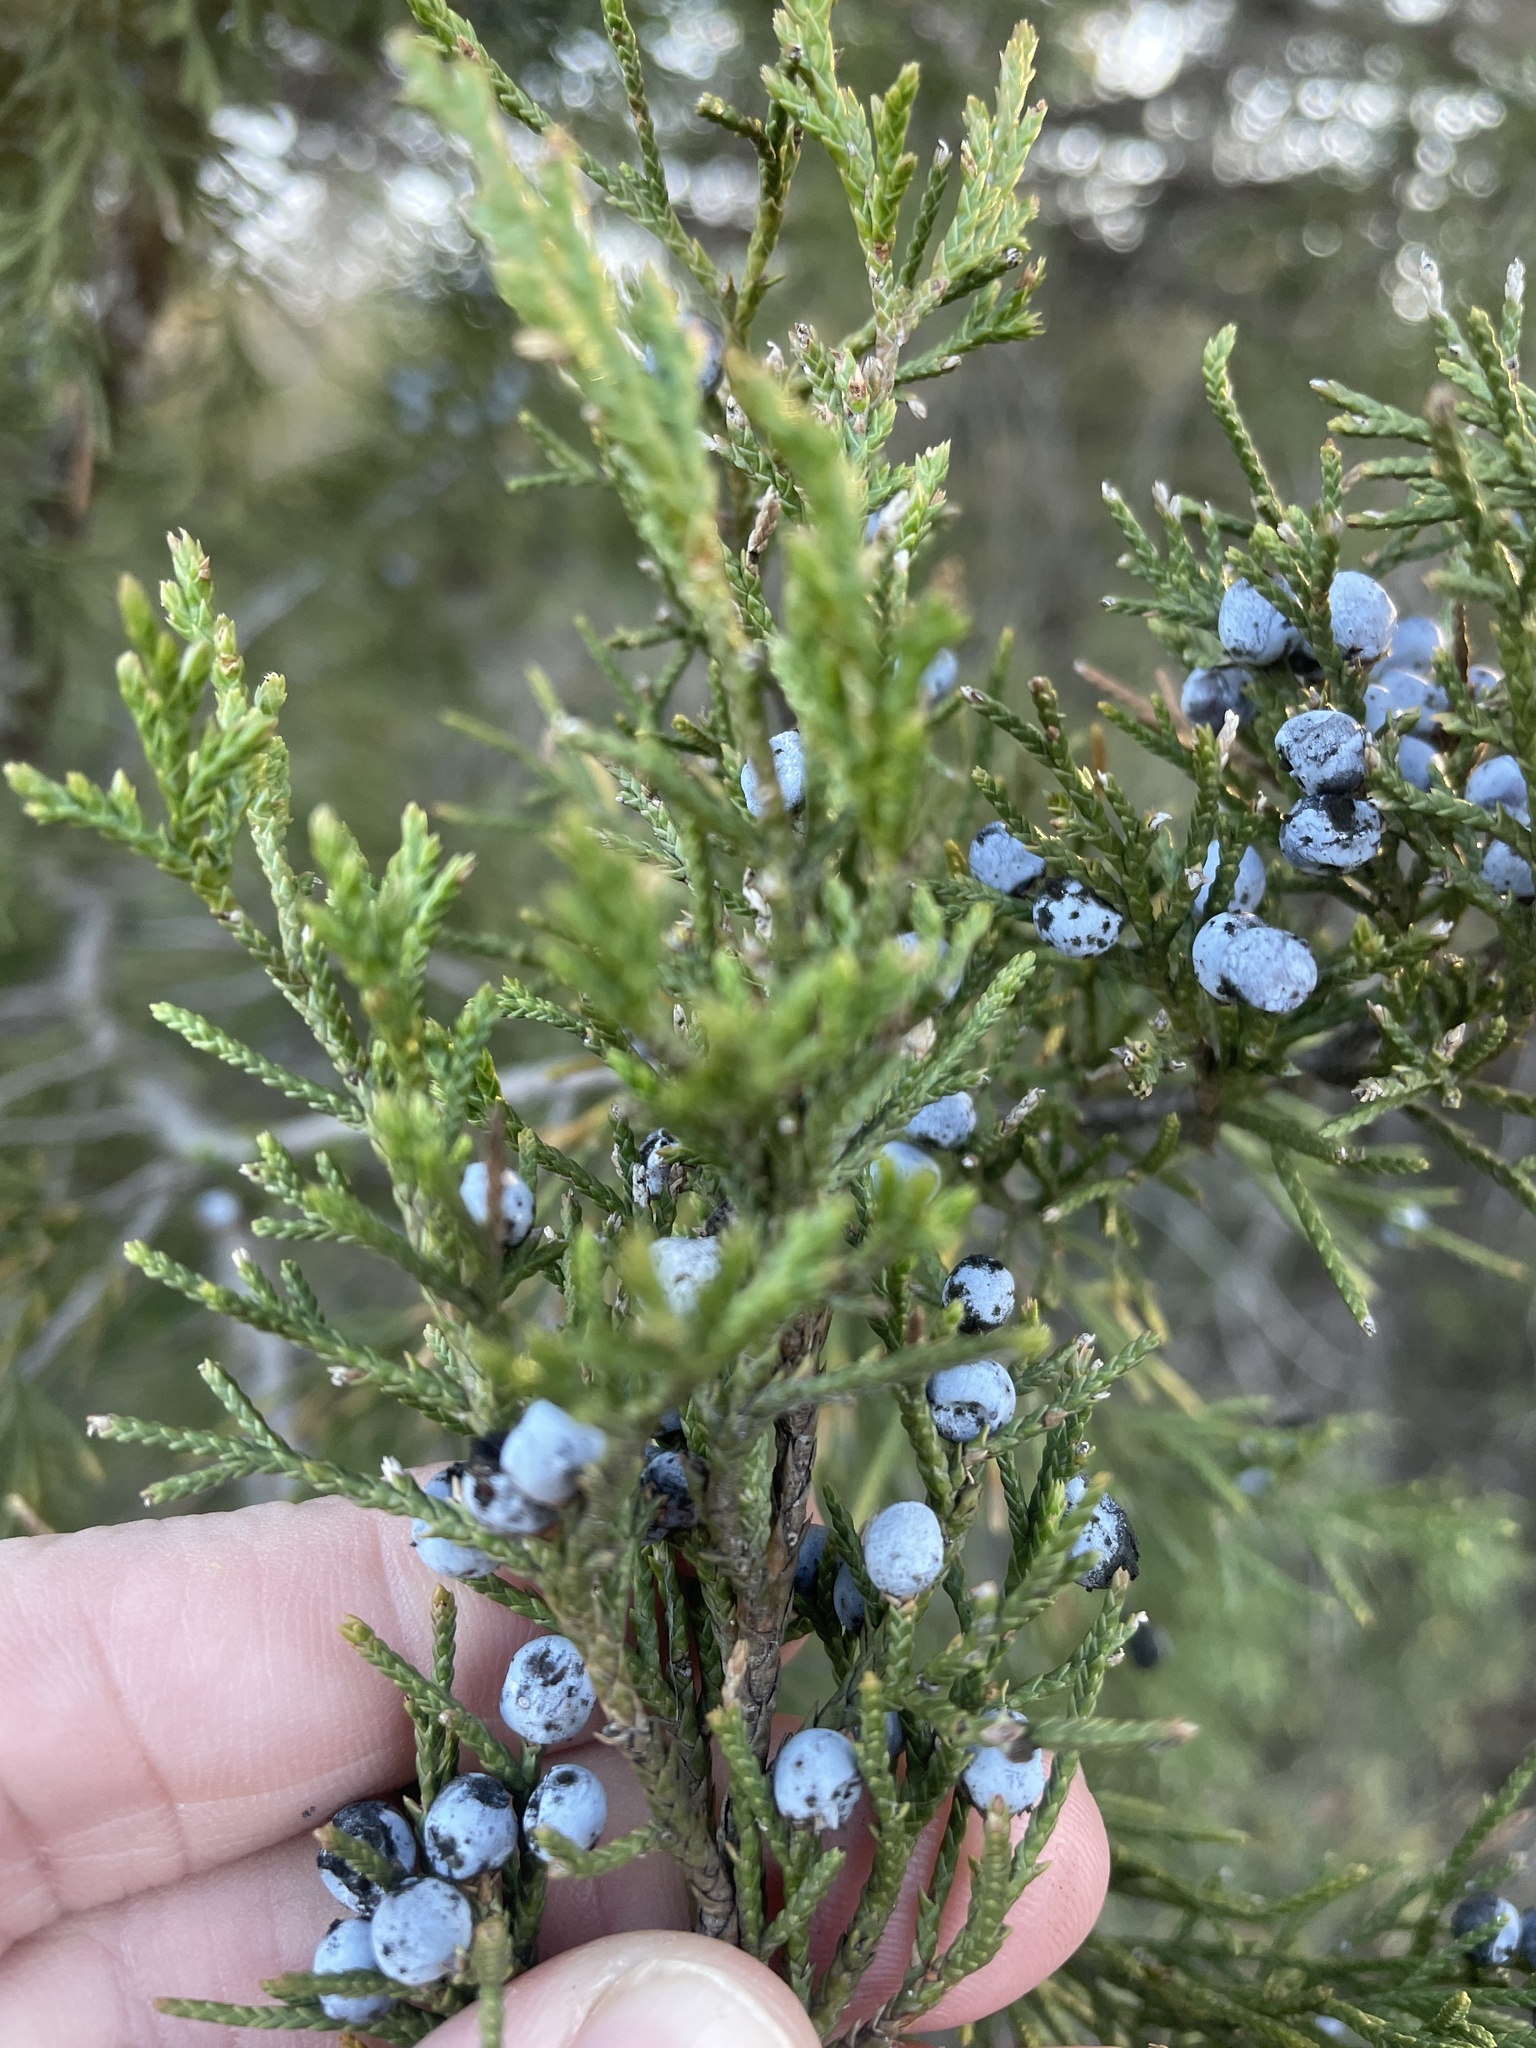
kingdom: Plantae
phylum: Tracheophyta
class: Pinopsida
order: Pinales
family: Cupressaceae
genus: Juniperus
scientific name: Juniperus virginiana
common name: Red juniper
